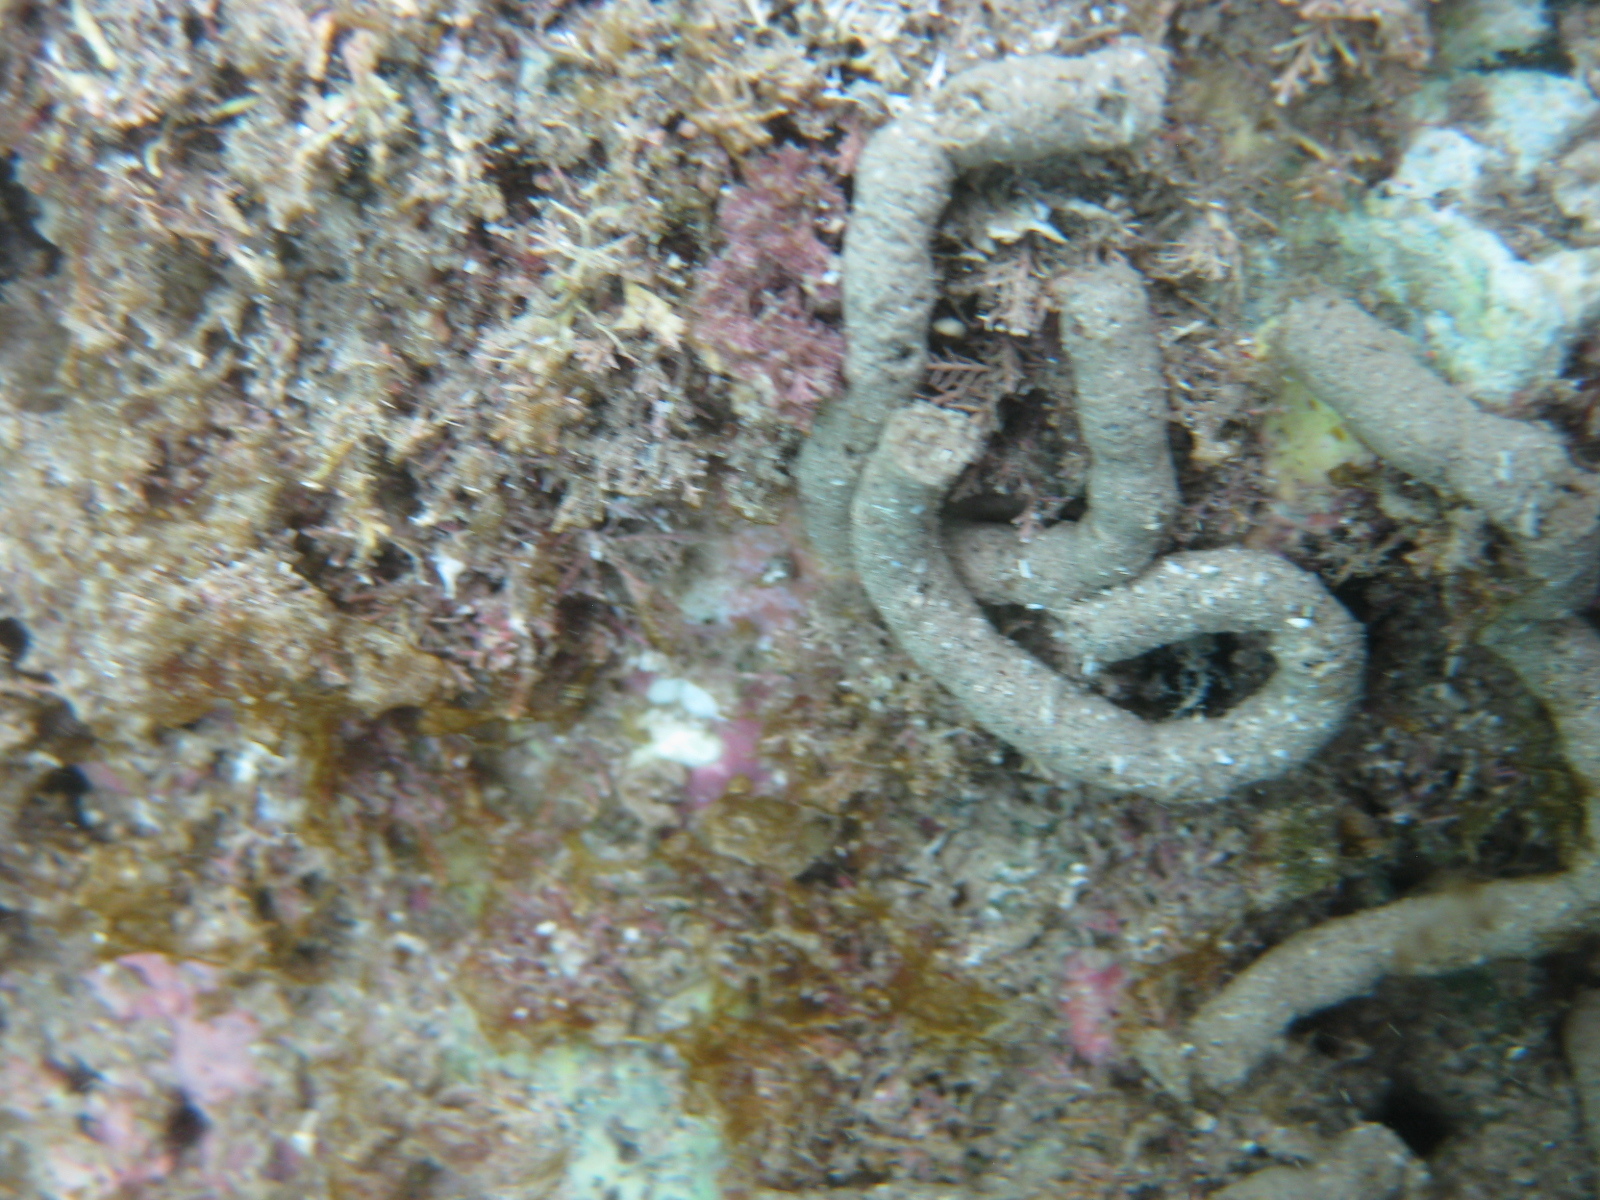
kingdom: Animalia
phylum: Echinodermata
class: Holothuroidea
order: Synallactida
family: Stichopodidae
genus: Australostichopus
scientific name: Australostichopus mollis
